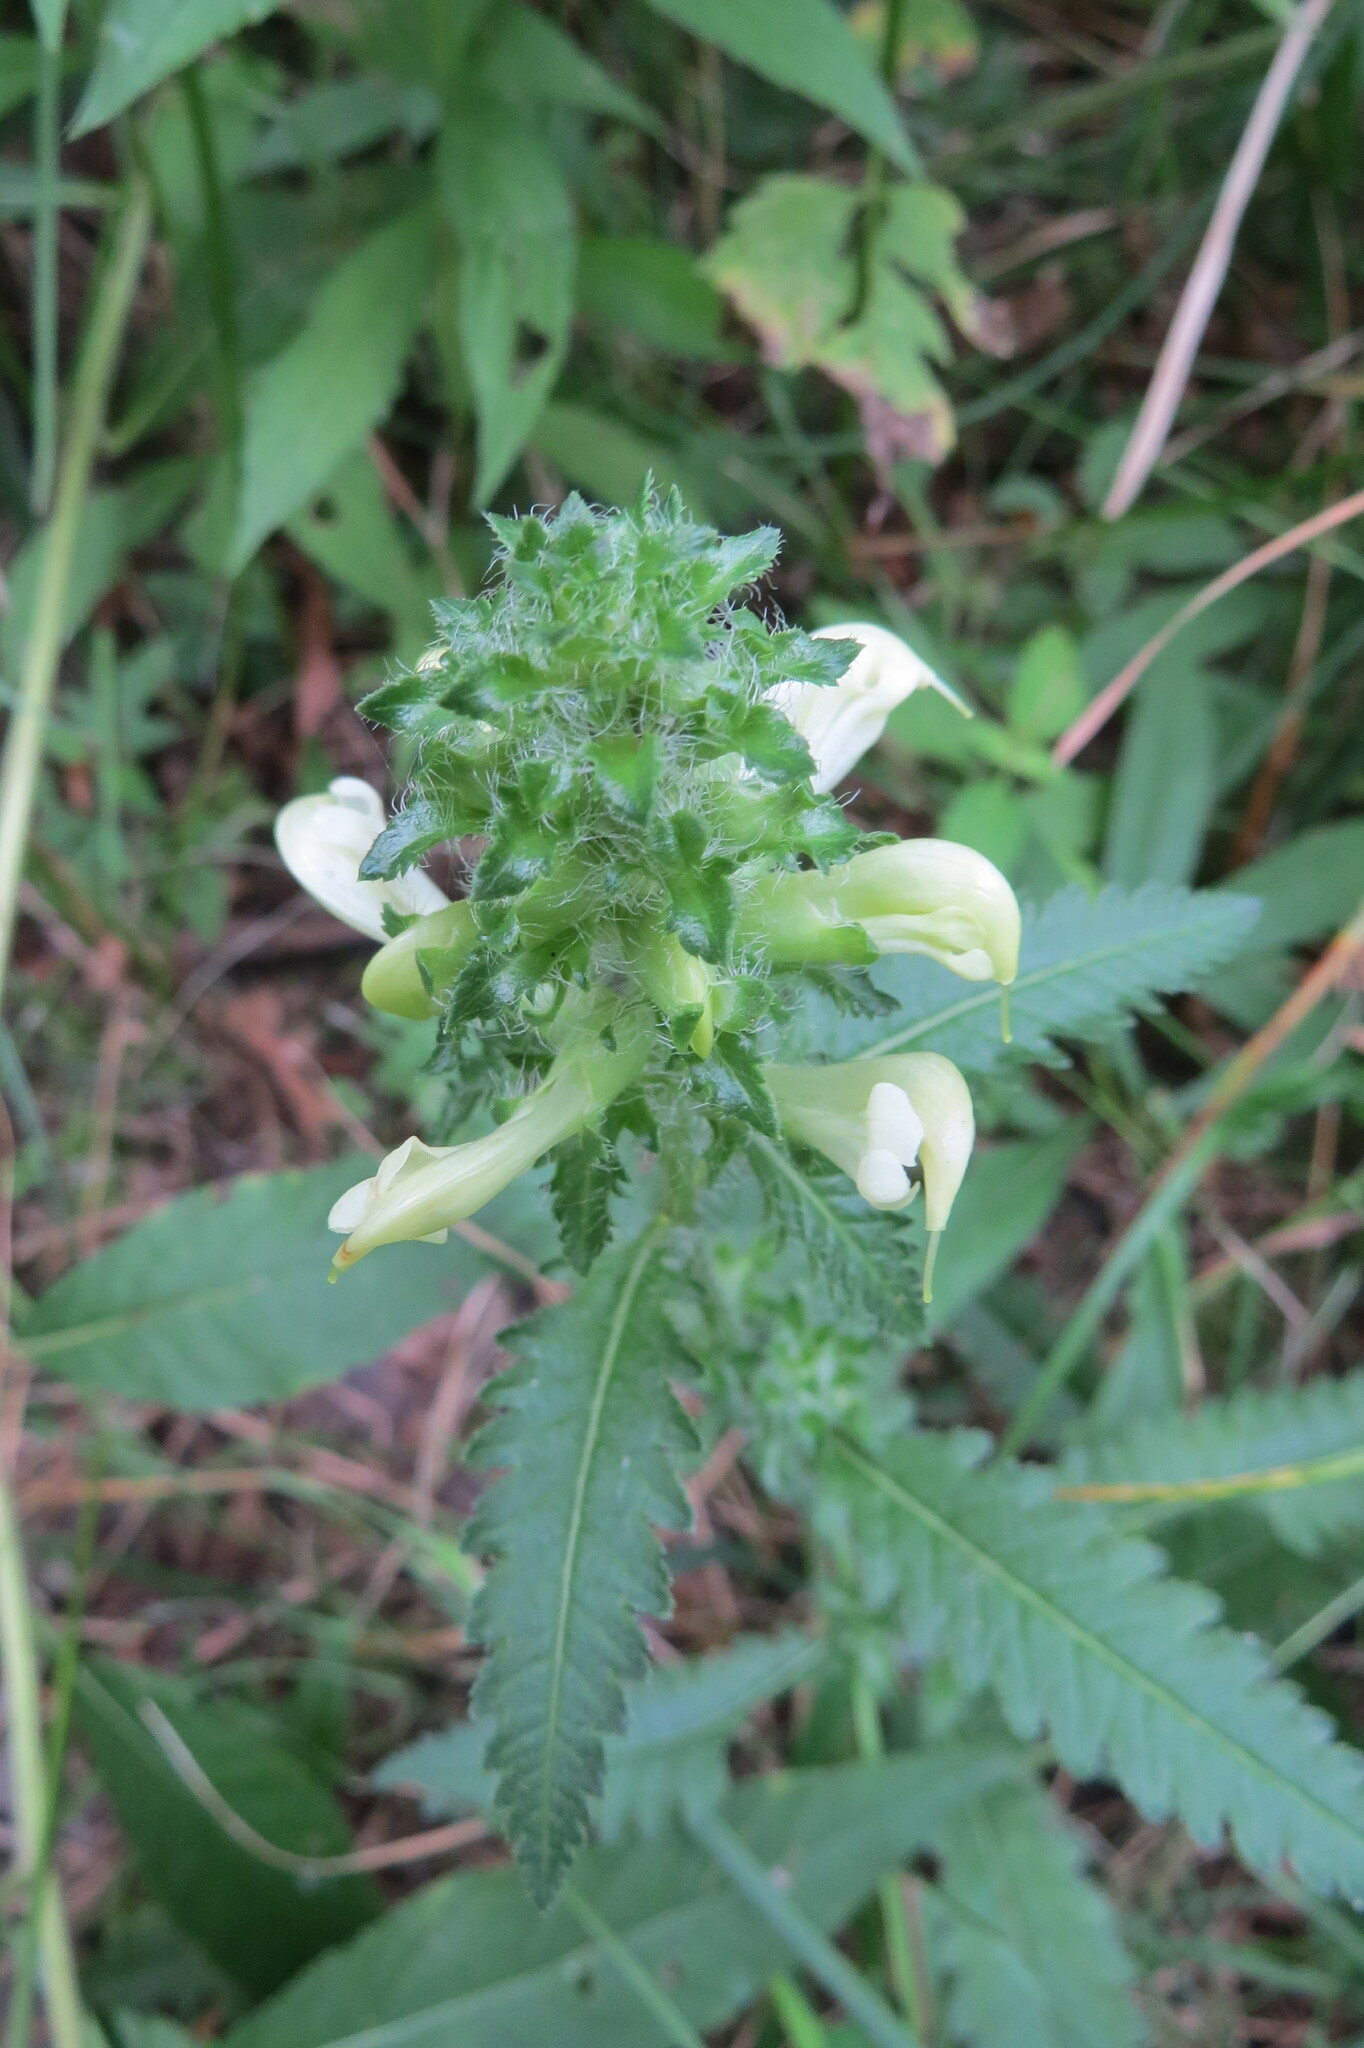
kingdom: Plantae
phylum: Tracheophyta
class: Magnoliopsida
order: Lamiales
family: Orobanchaceae
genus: Pedicularis
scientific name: Pedicularis lanceolata
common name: Swamp lousewort
